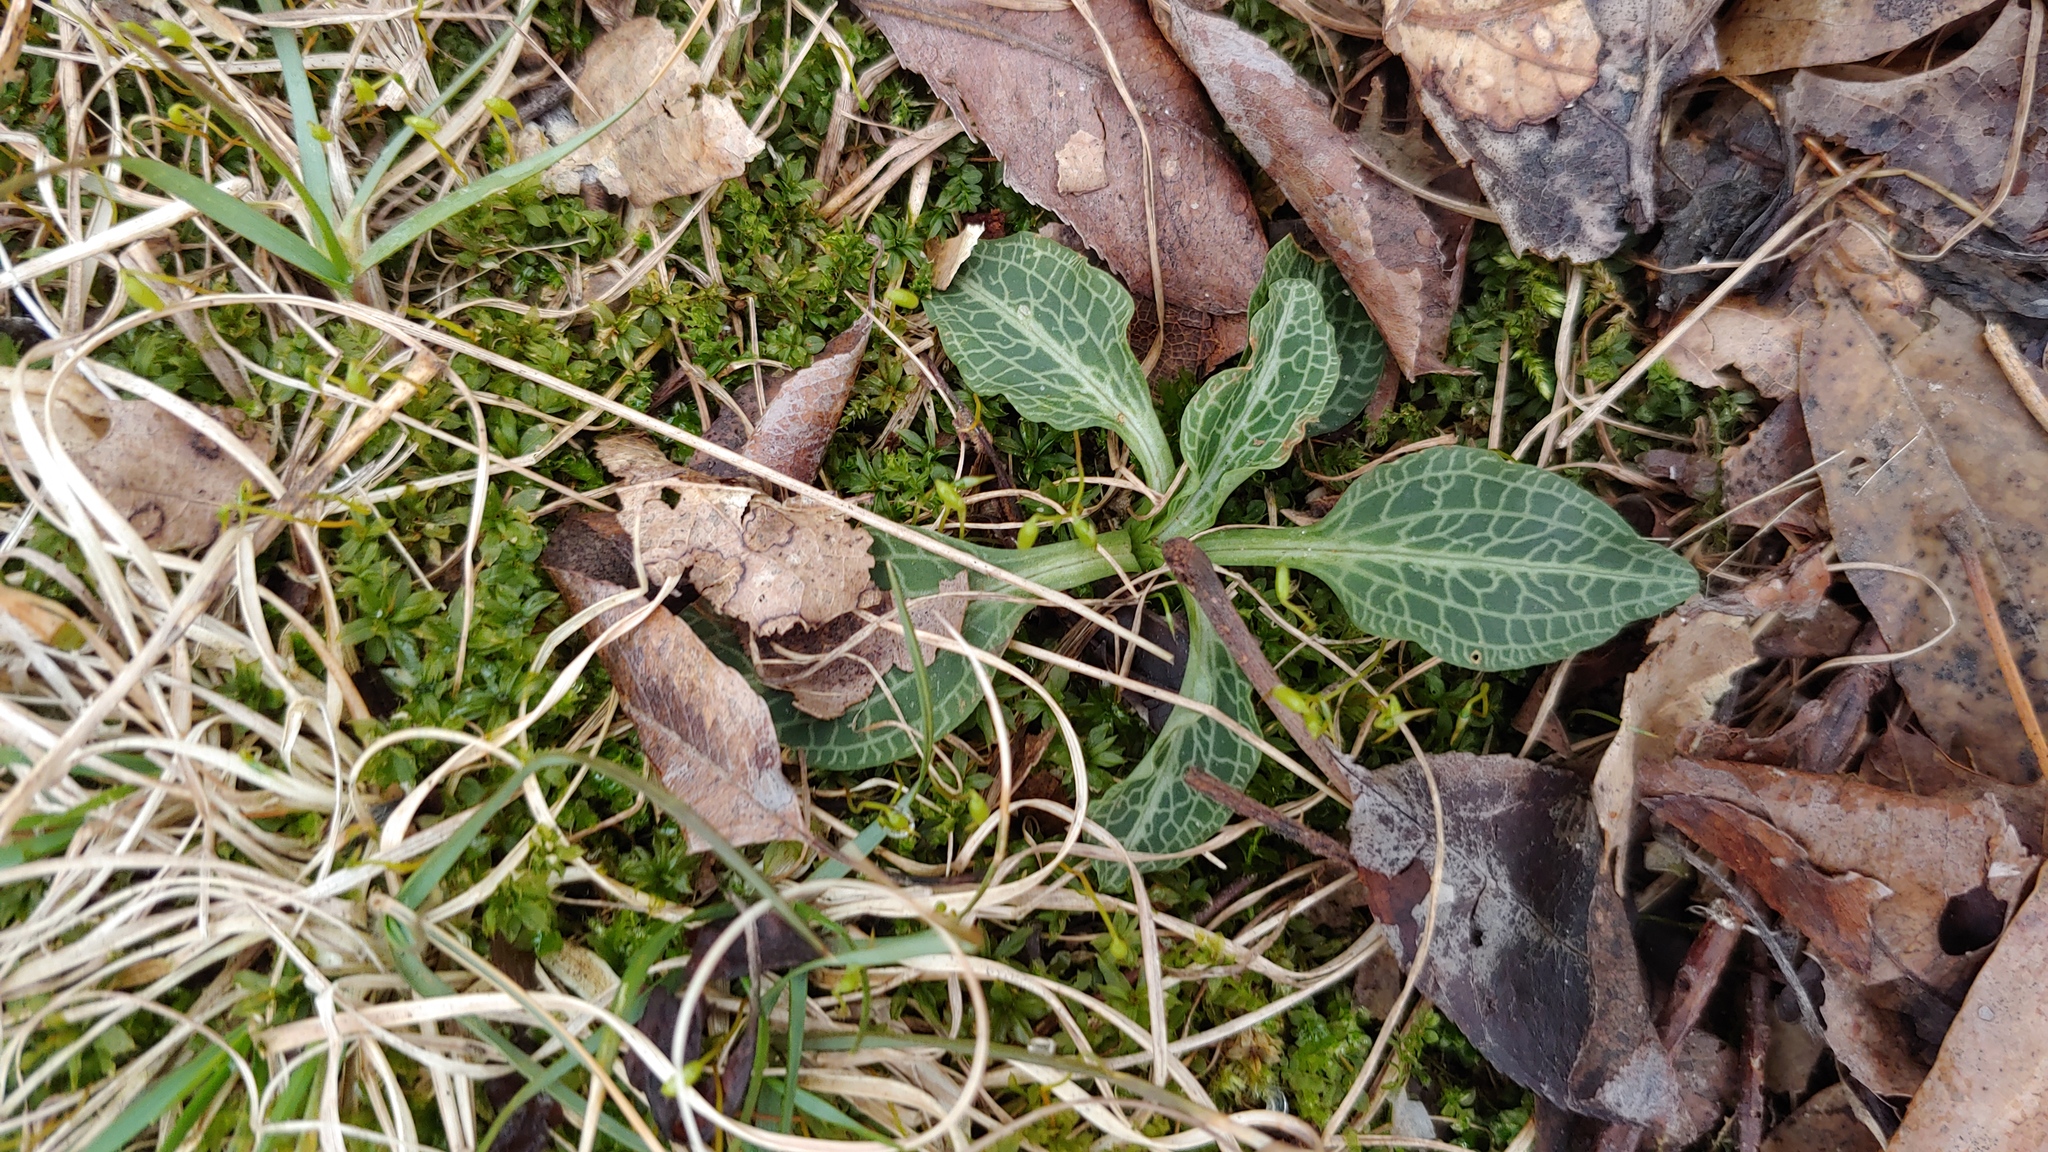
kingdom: Plantae
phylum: Tracheophyta
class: Liliopsida
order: Asparagales
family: Orchidaceae
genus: Goodyera
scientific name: Goodyera pubescens
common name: Downy rattlesnake-plantain
